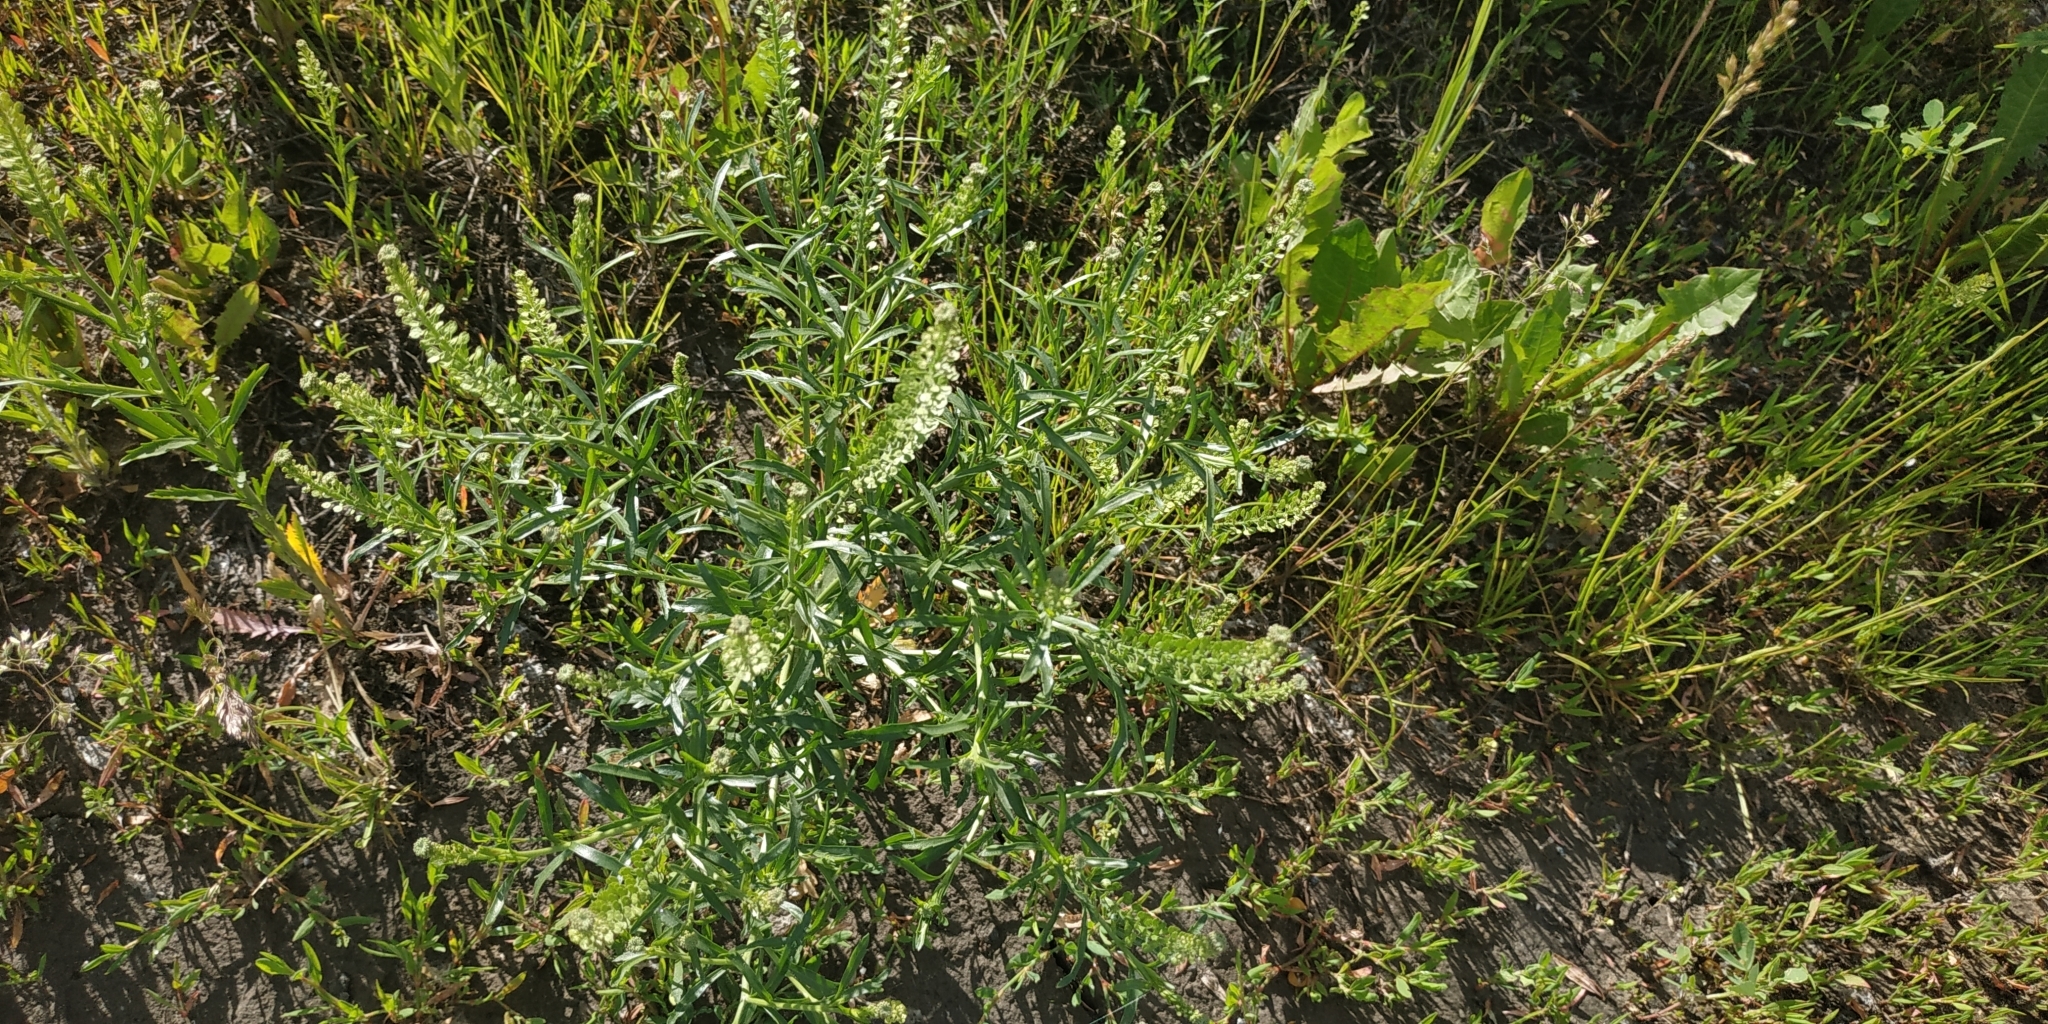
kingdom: Plantae
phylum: Tracheophyta
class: Magnoliopsida
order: Brassicales
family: Brassicaceae
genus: Lepidium
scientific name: Lepidium densiflorum
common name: Miner's pepperwort
